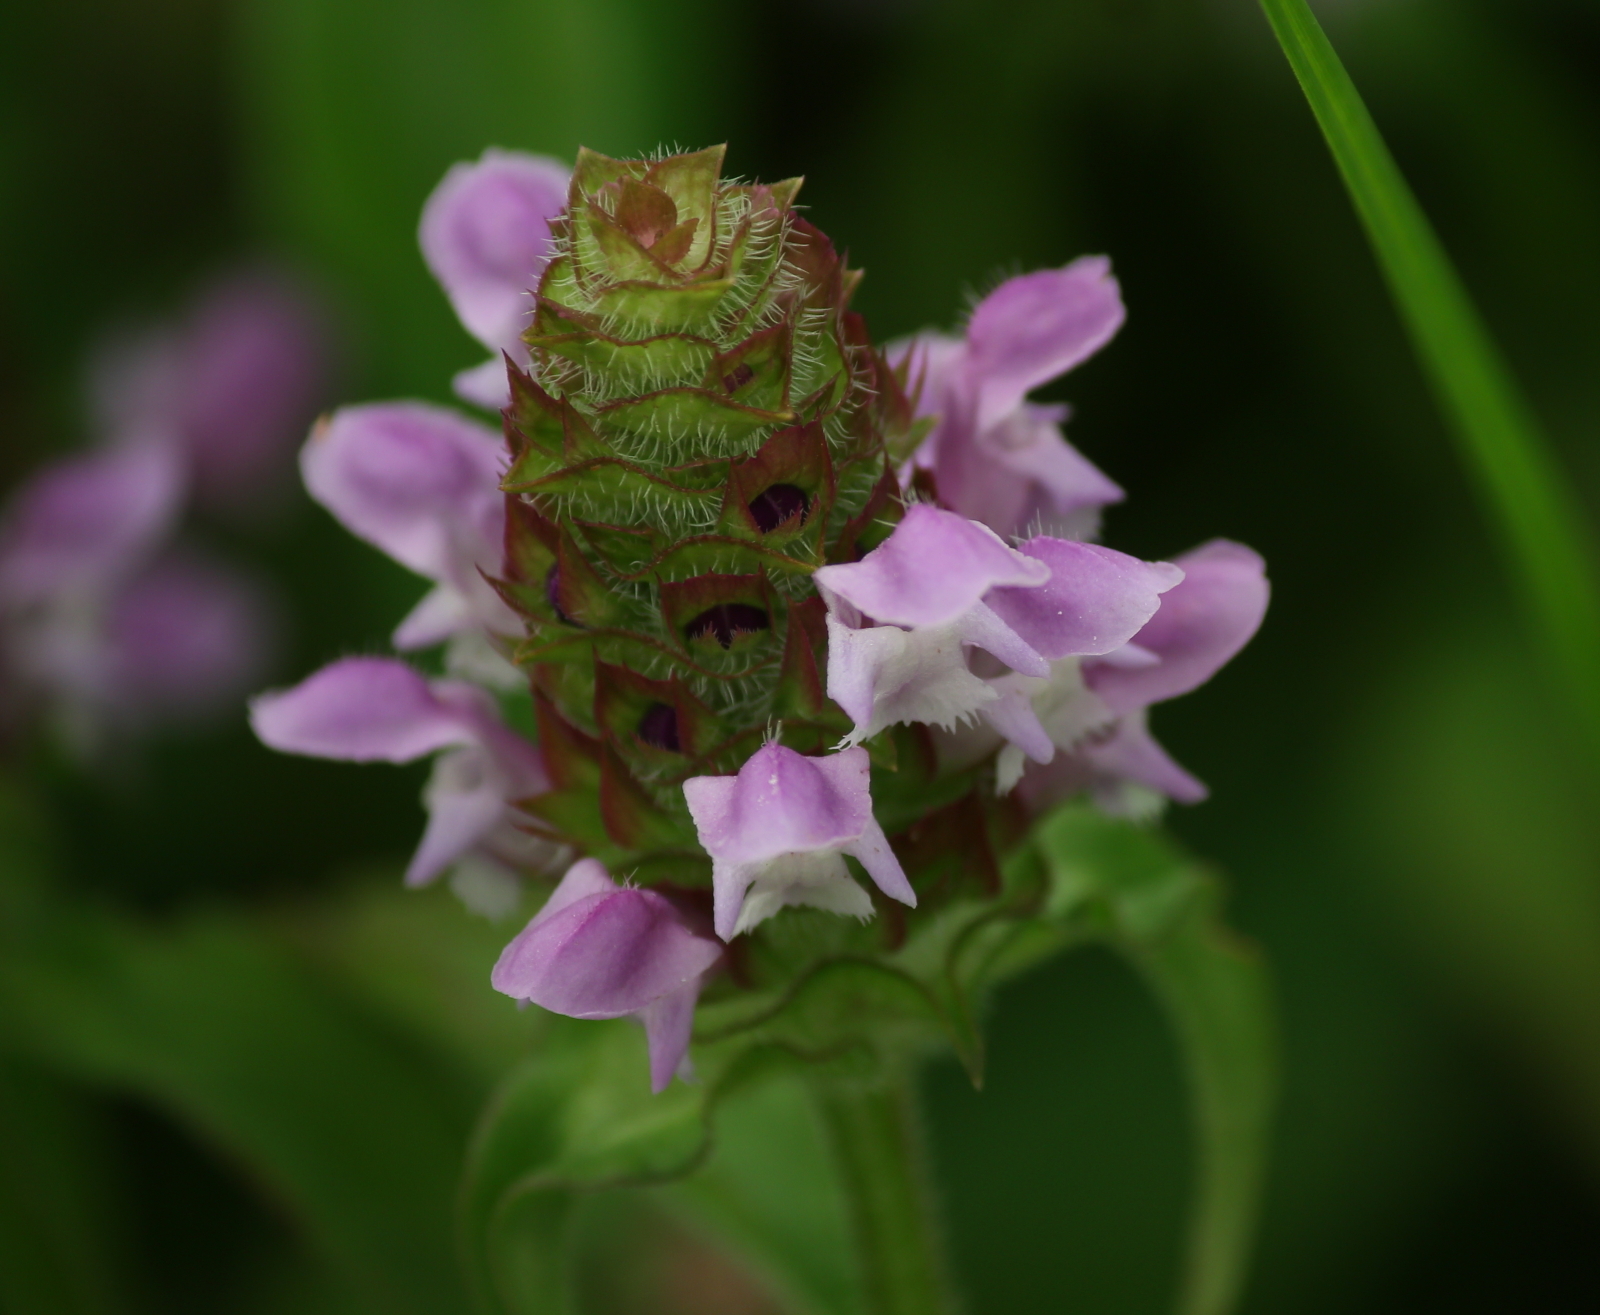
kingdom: Plantae
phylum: Tracheophyta
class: Magnoliopsida
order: Lamiales
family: Lamiaceae
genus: Prunella
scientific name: Prunella vulgaris
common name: Heal-all
